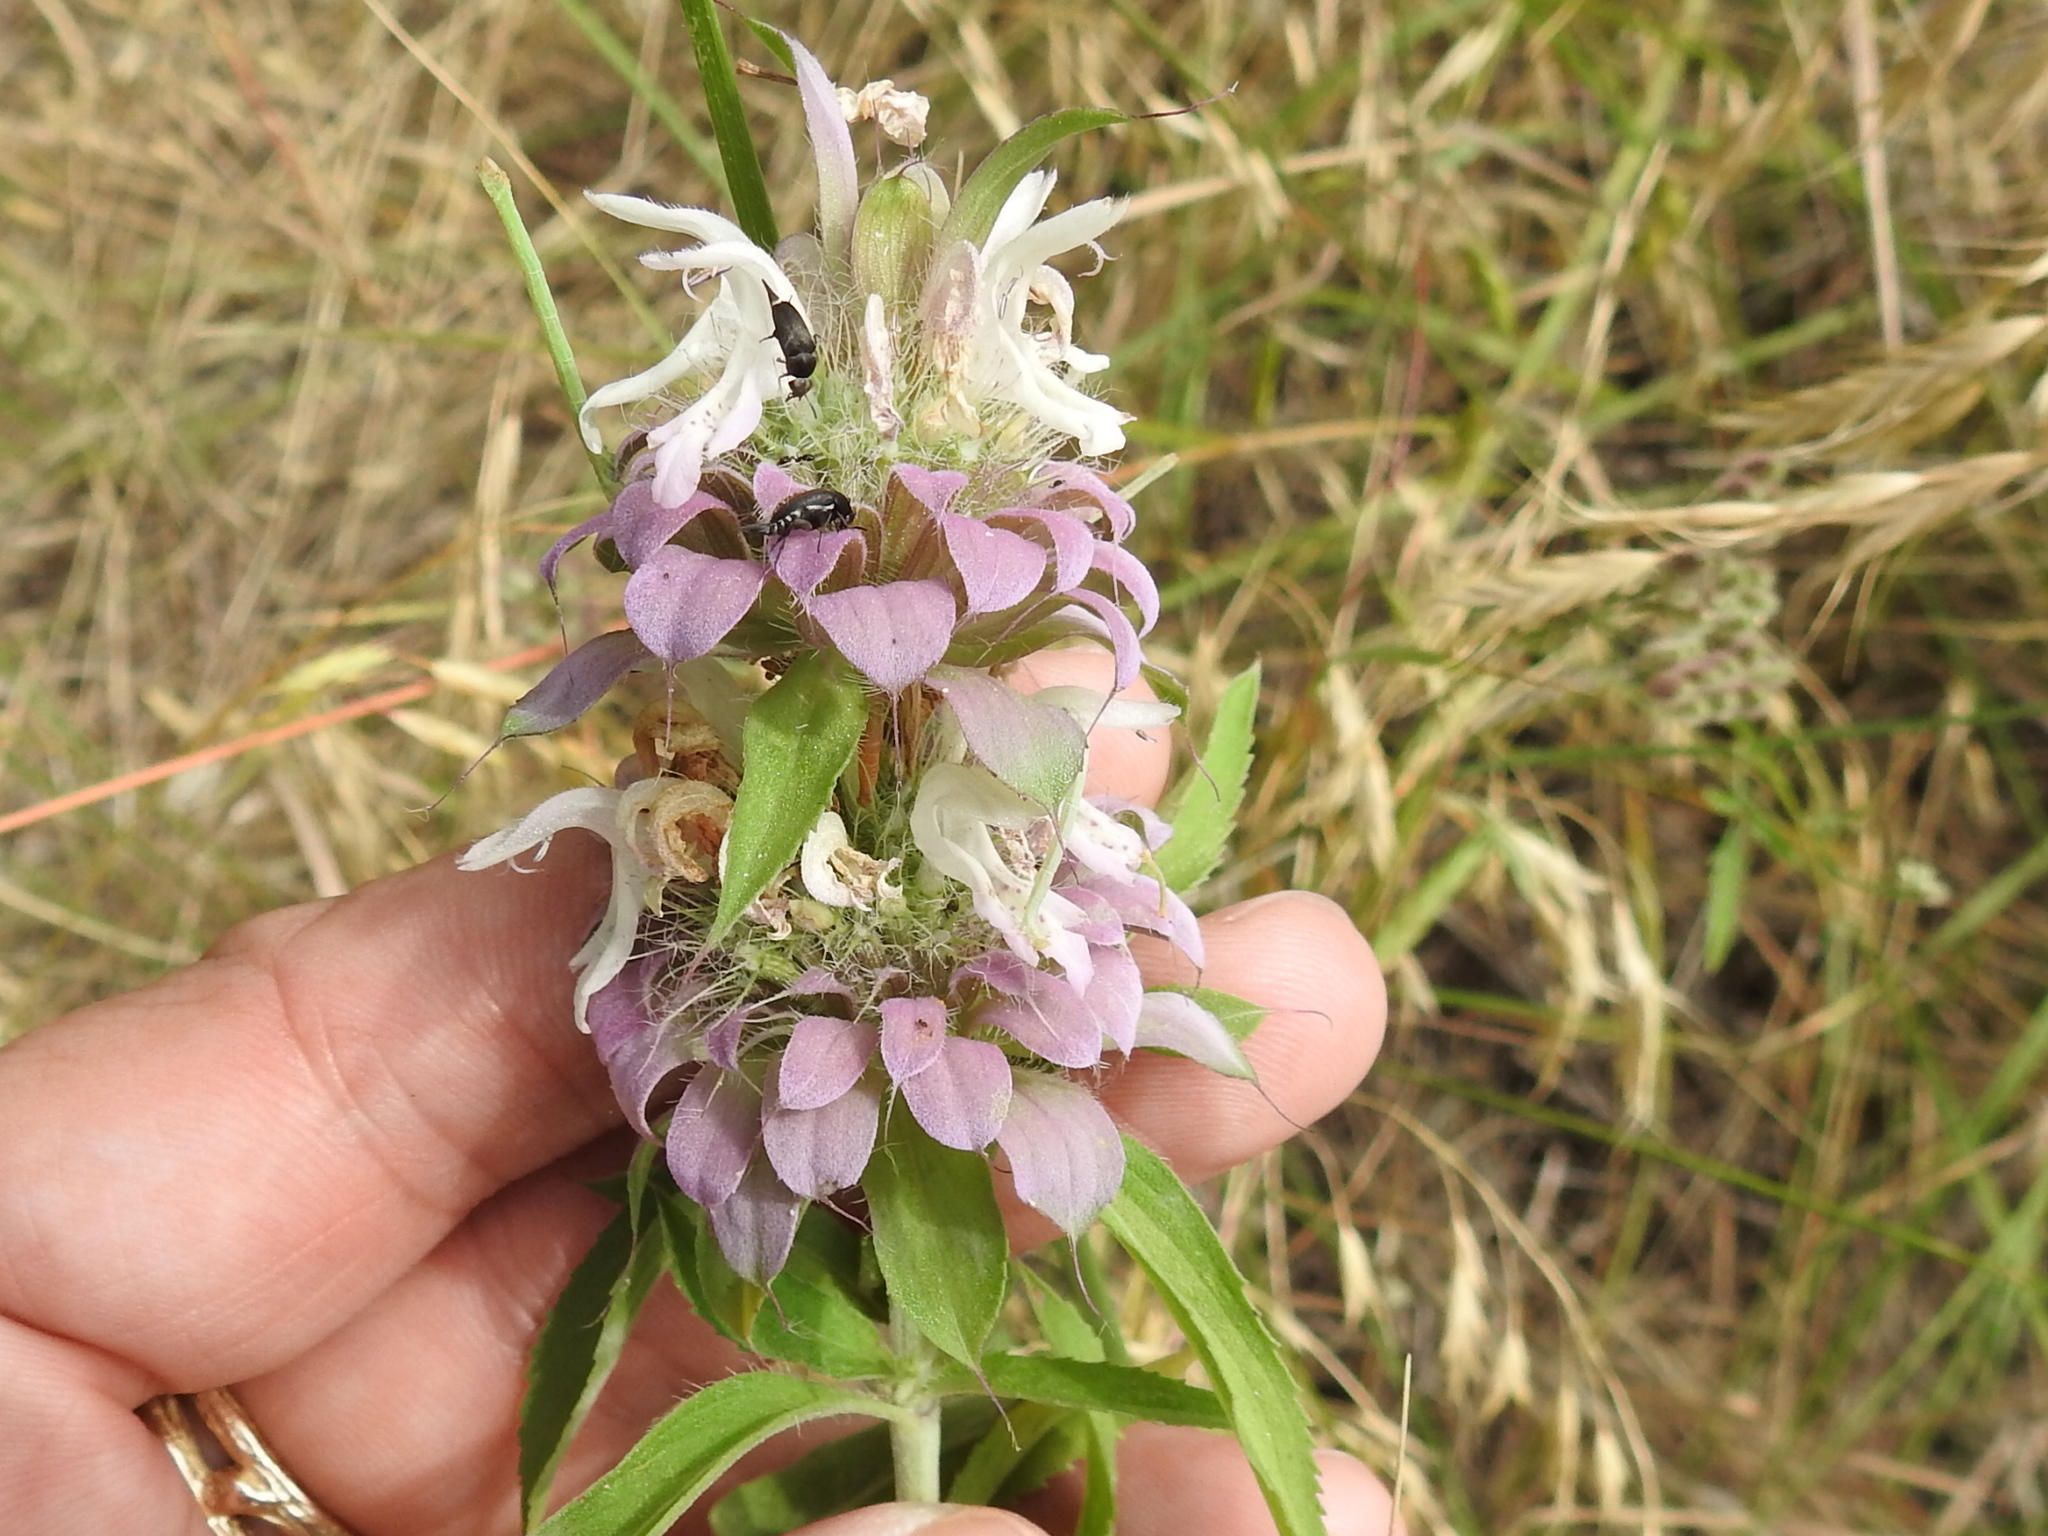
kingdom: Plantae
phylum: Tracheophyta
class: Magnoliopsida
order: Lamiales
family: Lamiaceae
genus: Monarda
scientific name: Monarda citriodora
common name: Lemon beebalm
